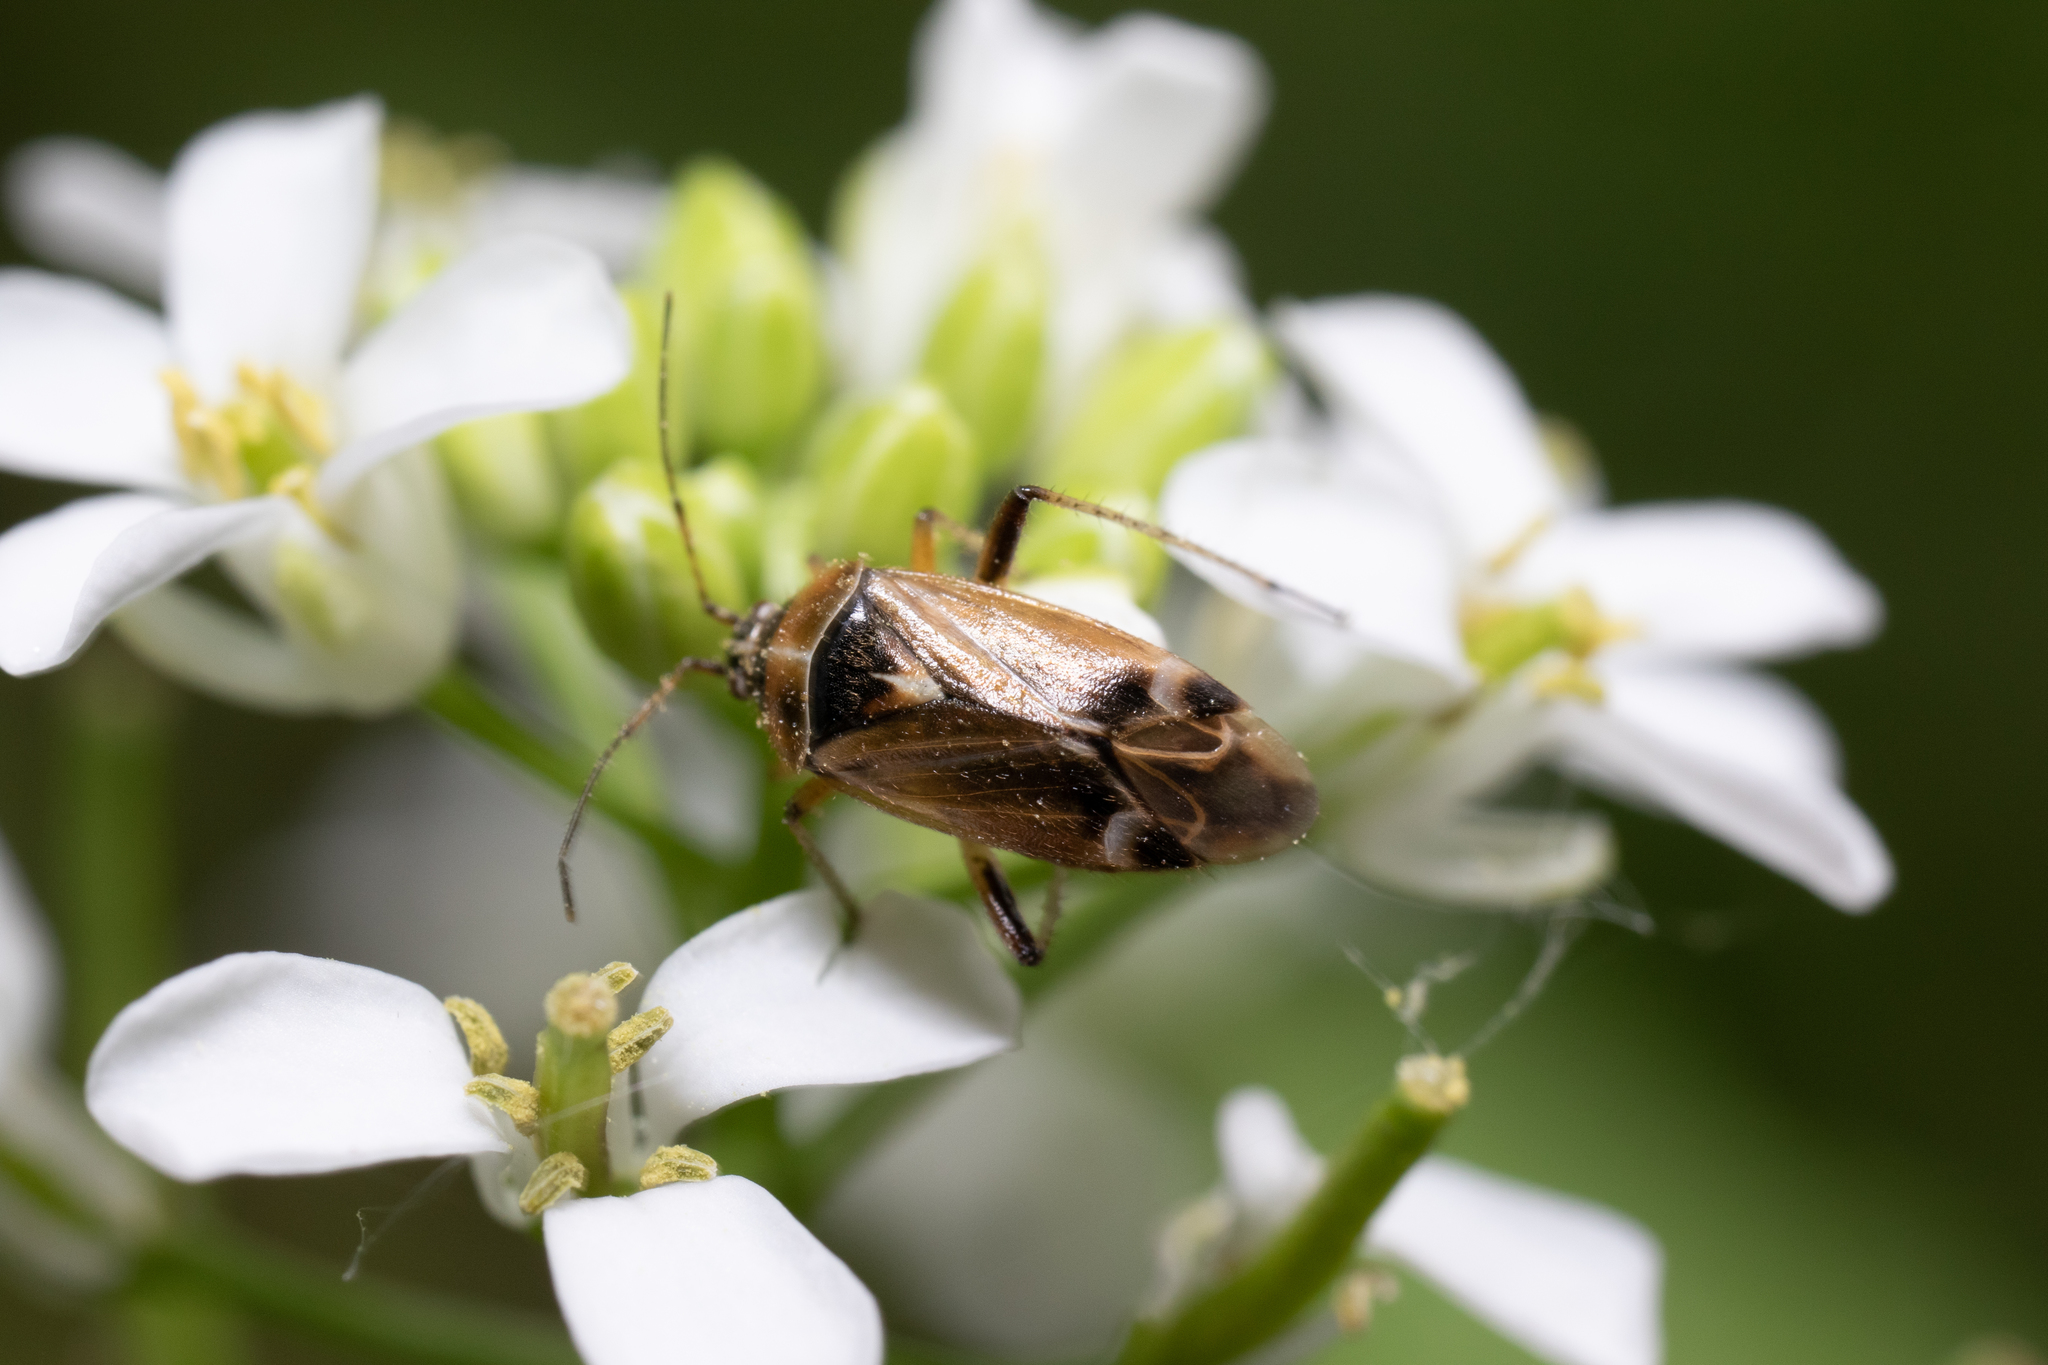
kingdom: Animalia
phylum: Arthropoda
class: Insecta
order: Hemiptera
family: Miridae
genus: Harpocera
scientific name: Harpocera thoracica
